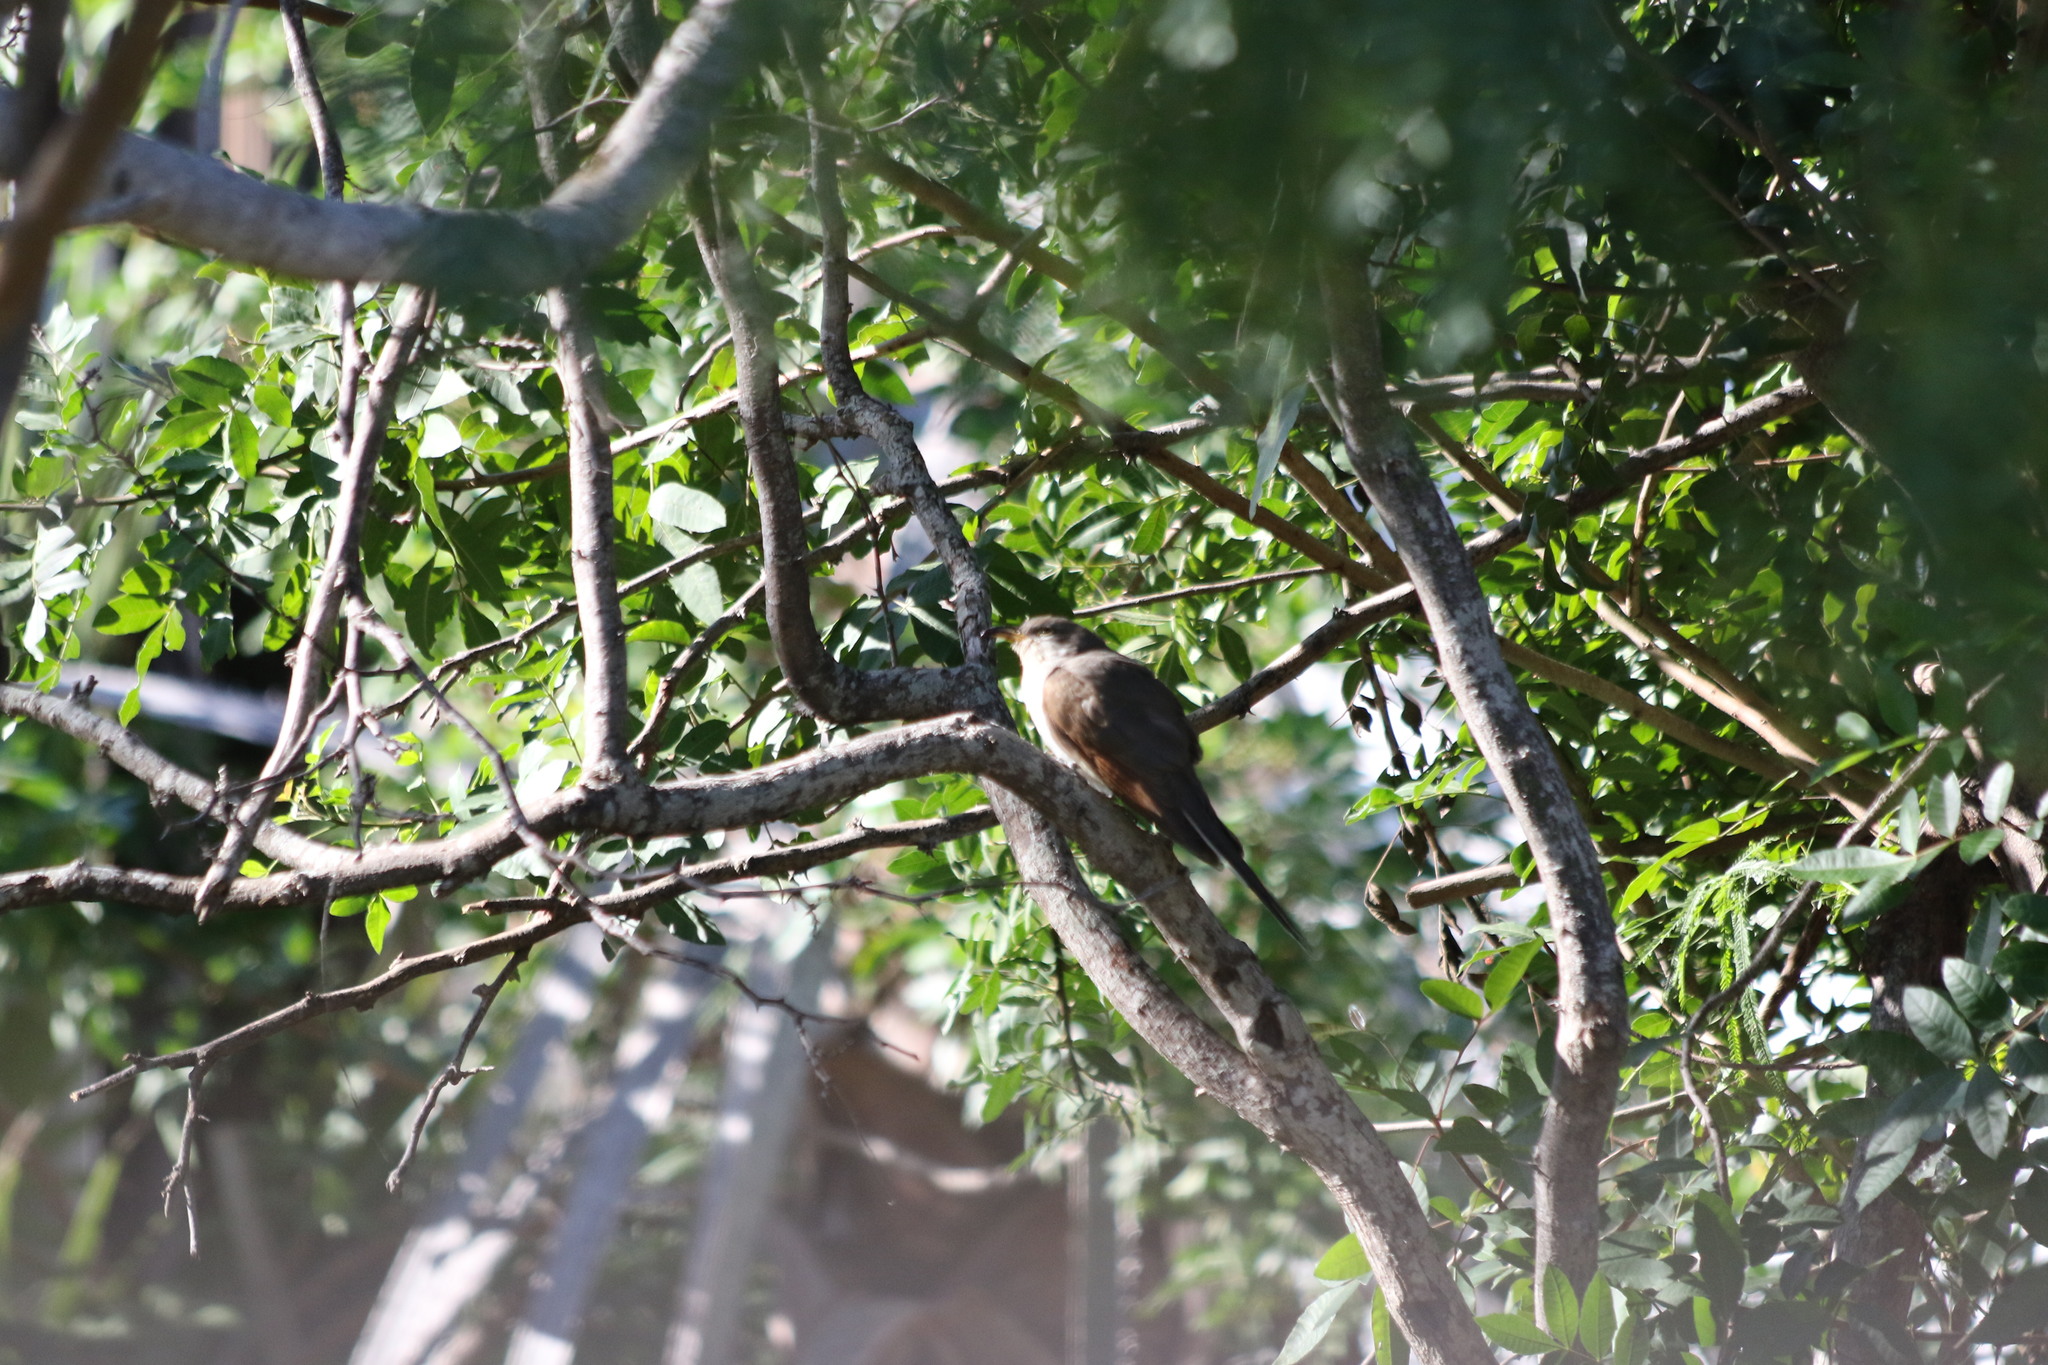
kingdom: Animalia
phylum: Chordata
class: Aves
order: Cuculiformes
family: Cuculidae
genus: Coccyzus
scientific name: Coccyzus americanus
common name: Yellow-billed cuckoo
